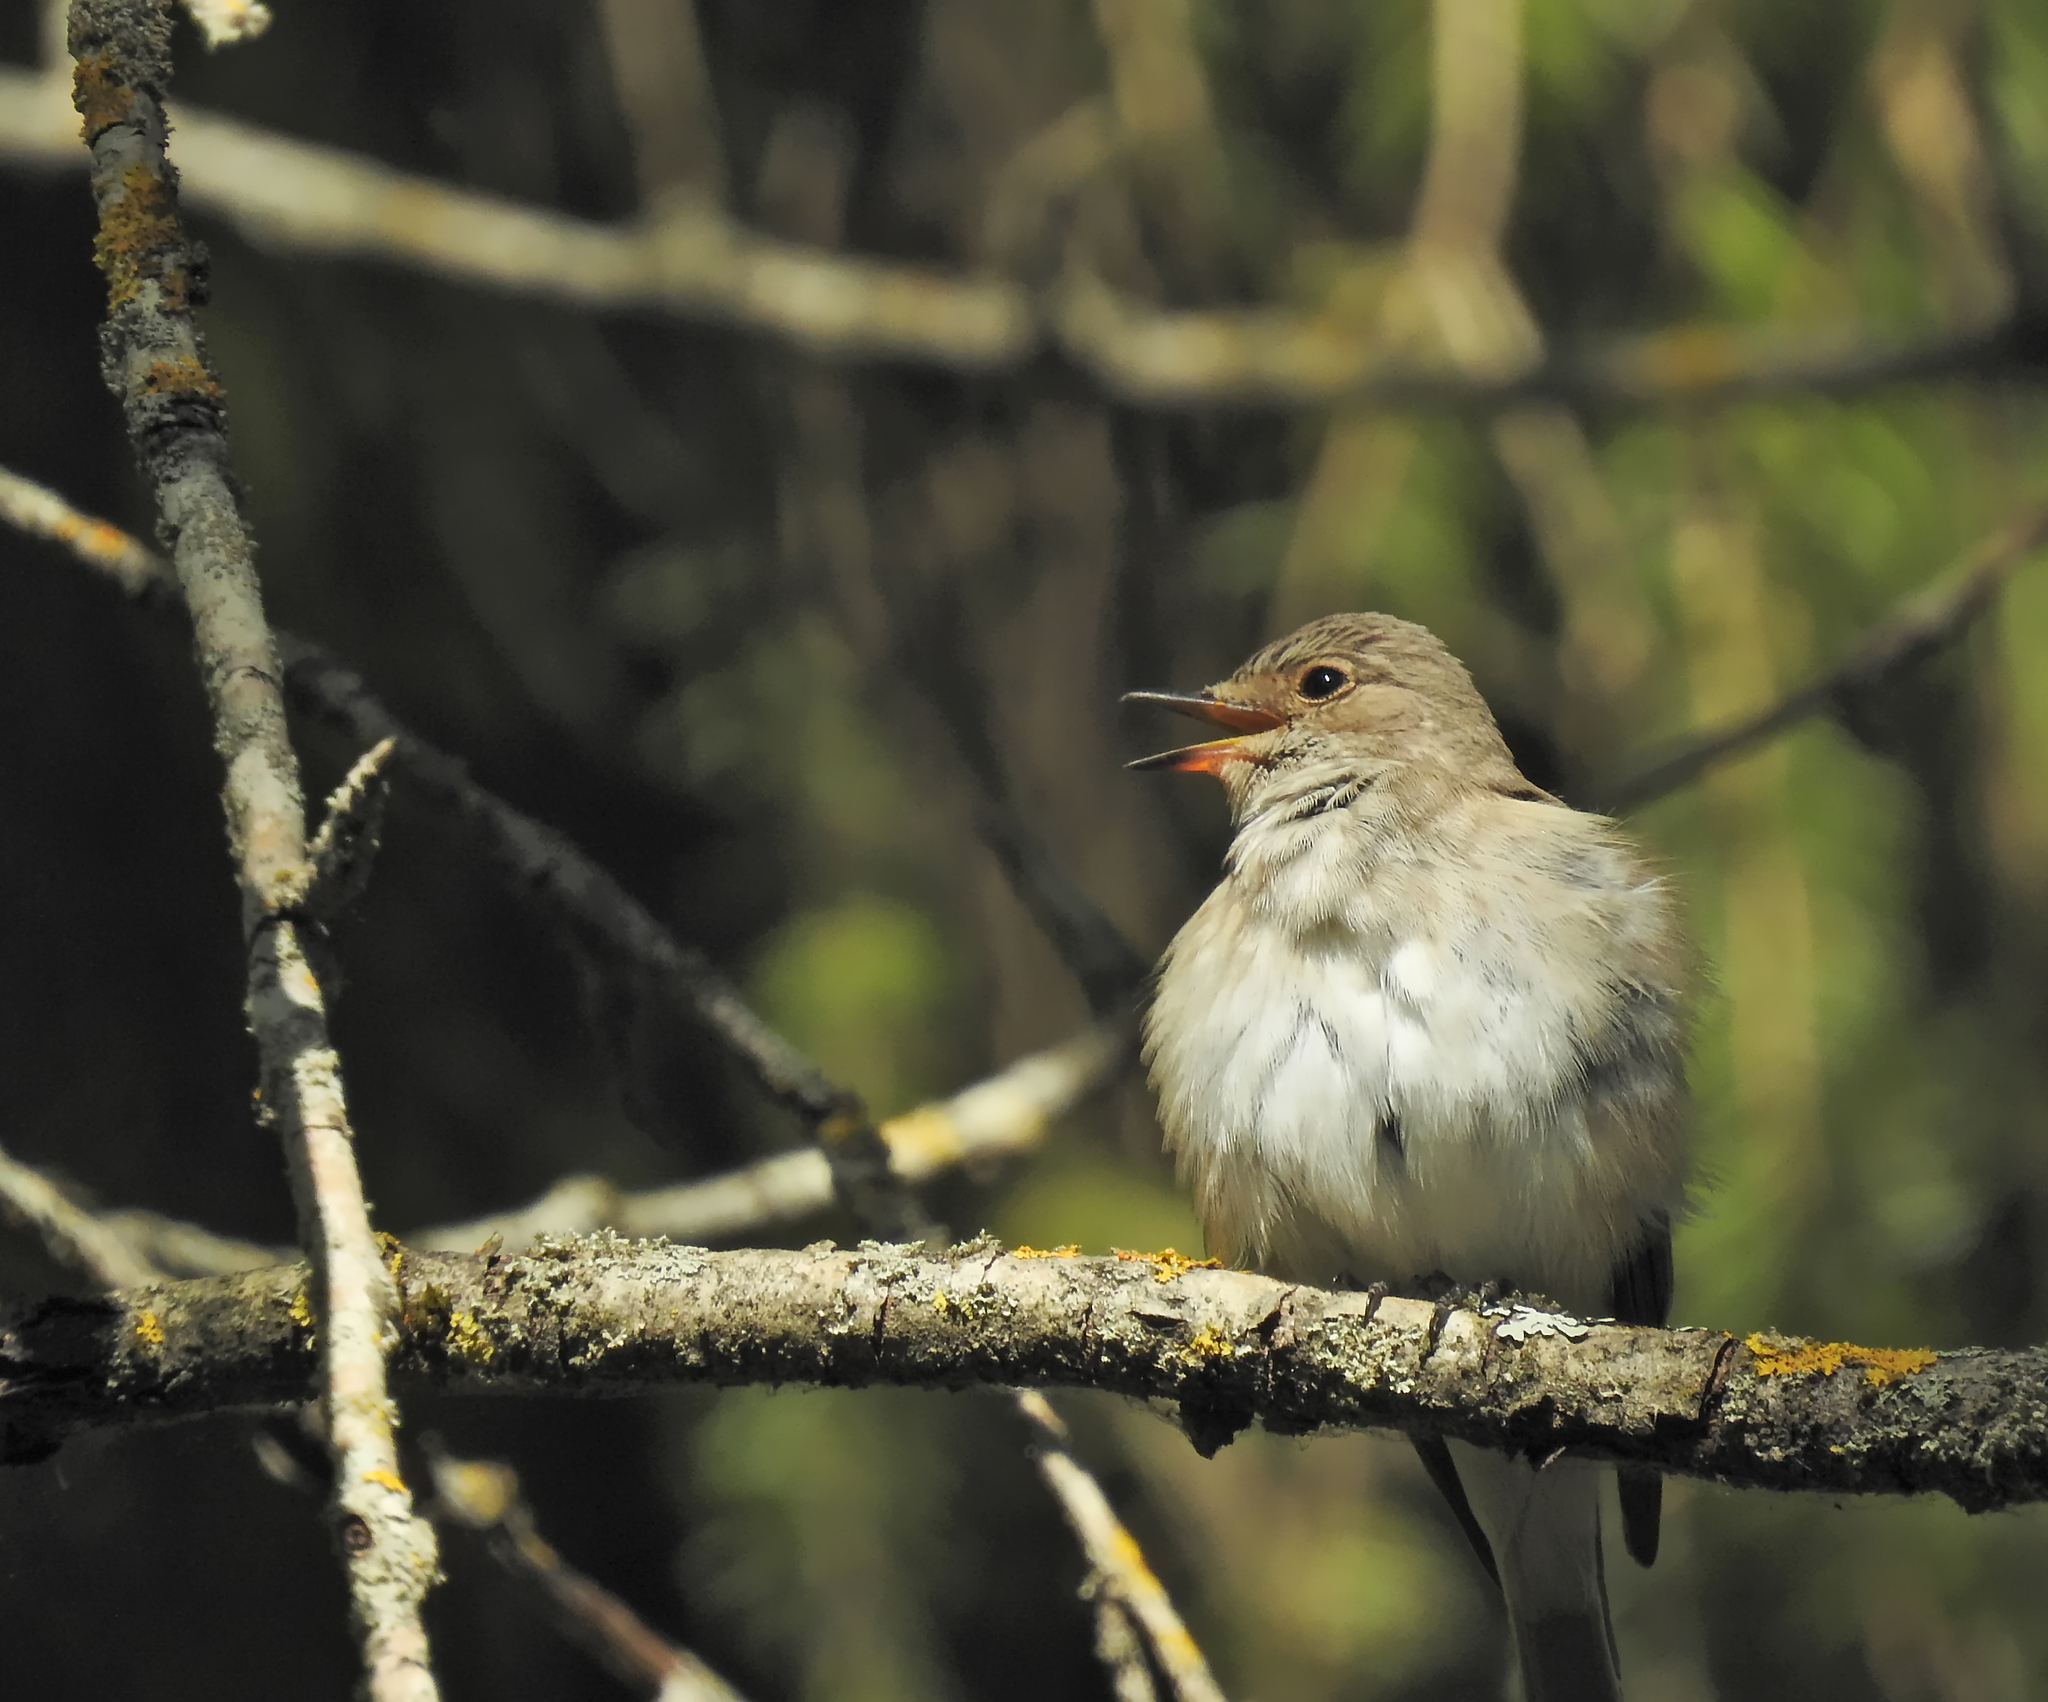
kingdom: Animalia
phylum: Chordata
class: Aves
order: Passeriformes
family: Muscicapidae
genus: Luscinia
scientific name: Luscinia luscinia
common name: Thrush nightingale
